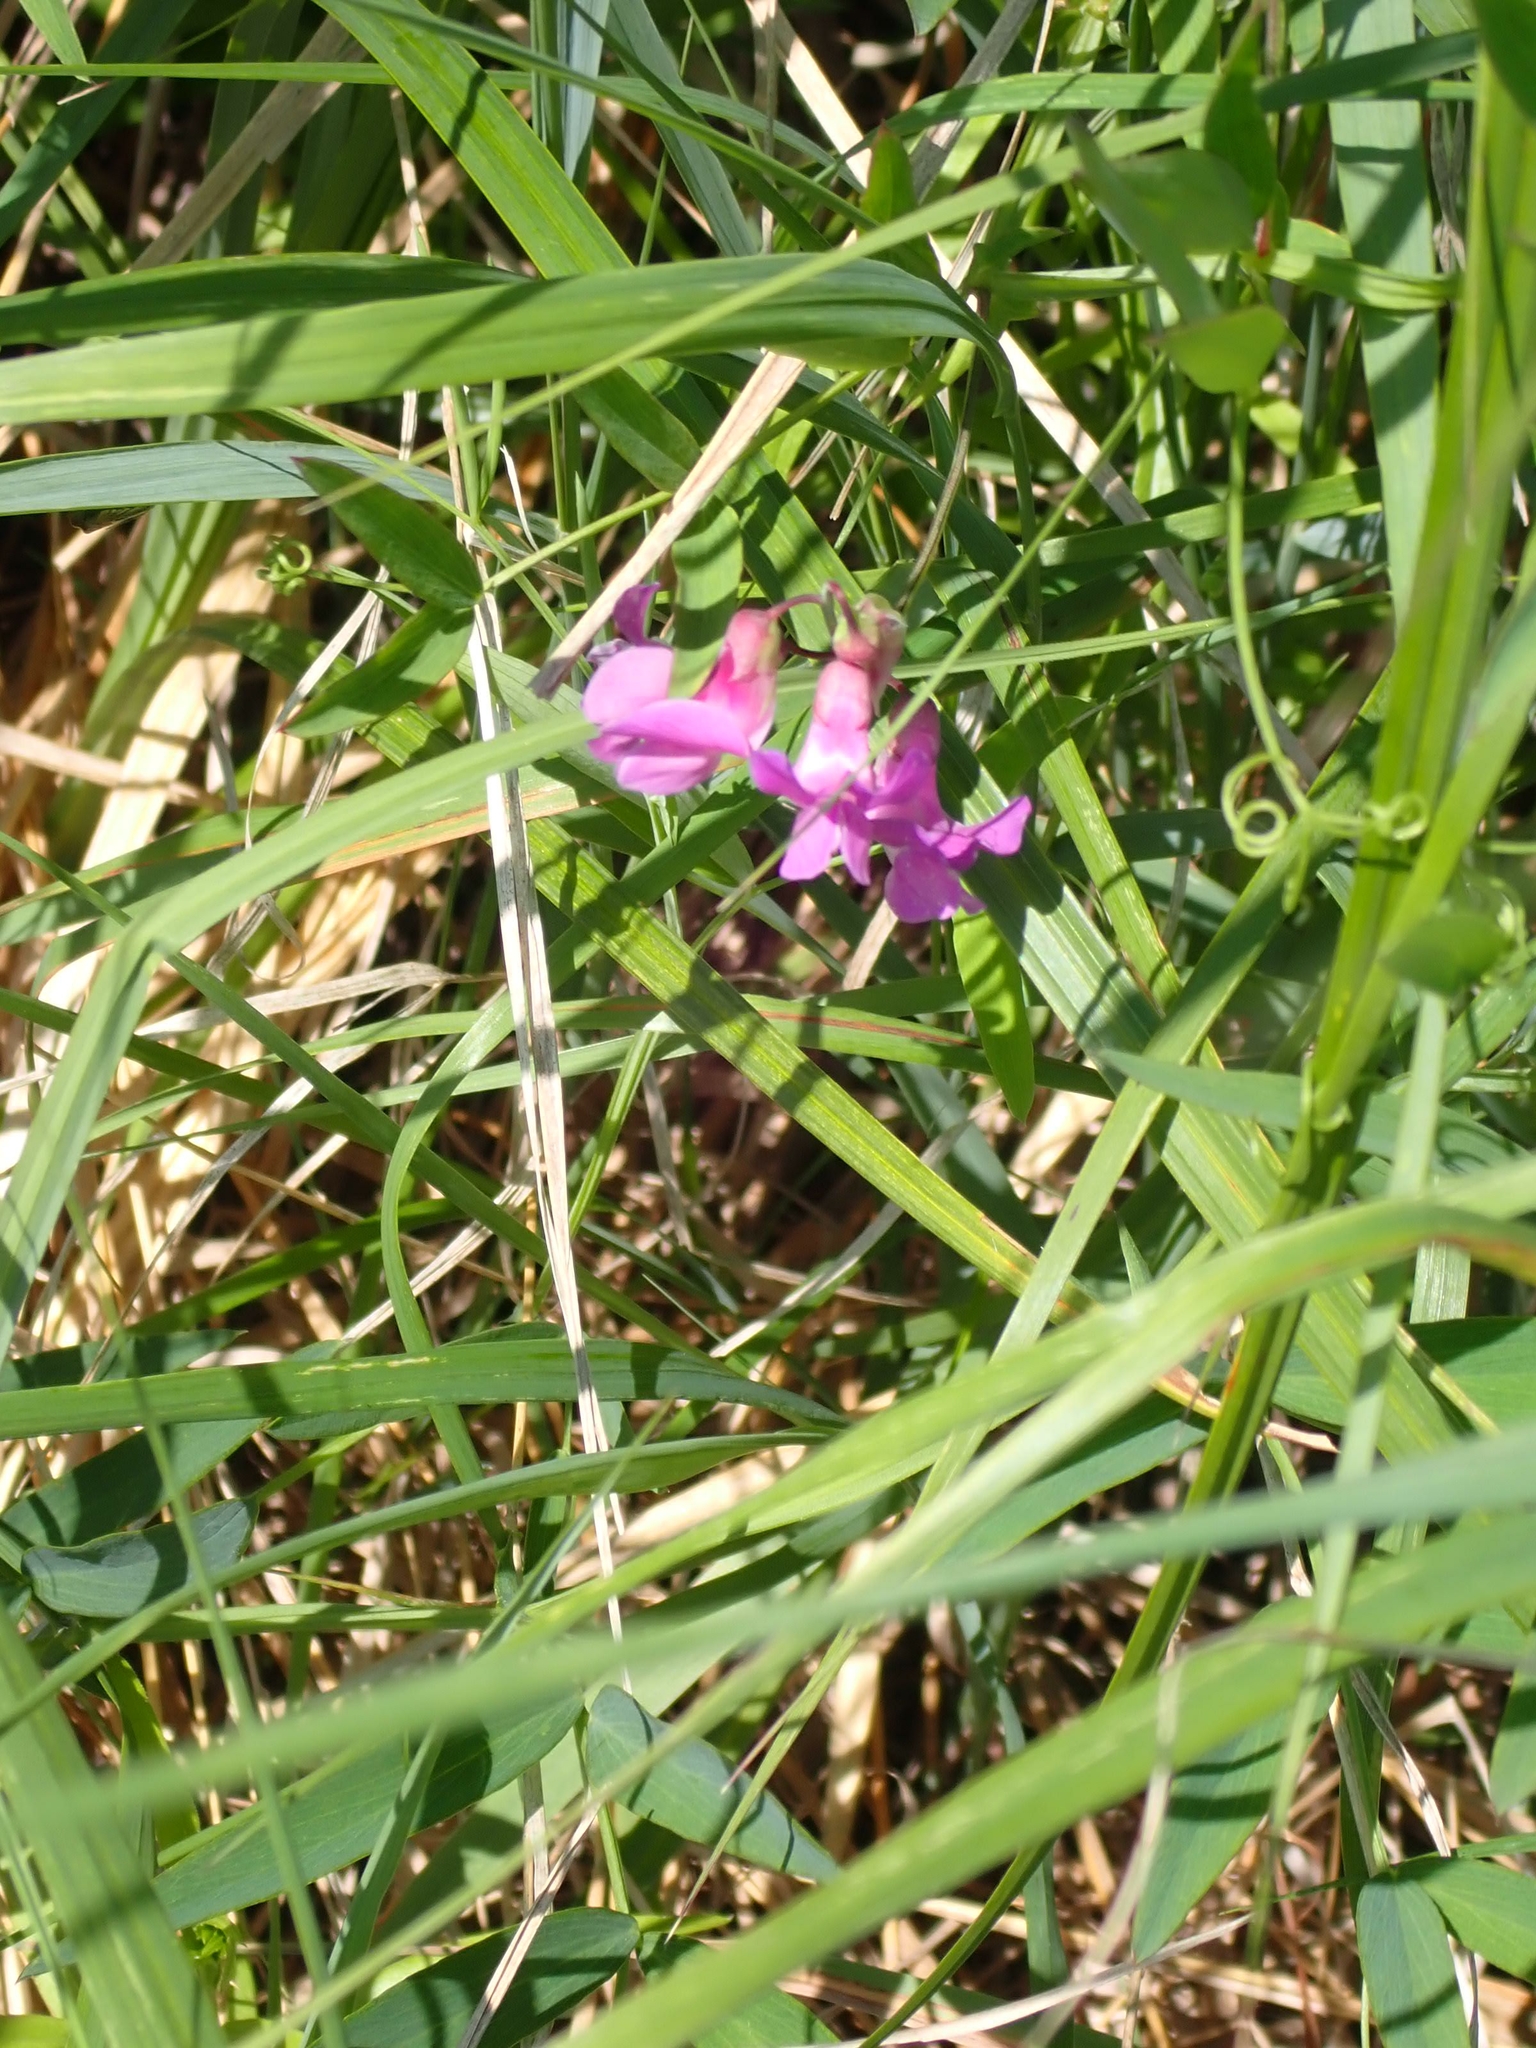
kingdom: Plantae
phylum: Tracheophyta
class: Magnoliopsida
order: Fabales
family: Fabaceae
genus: Lathyrus
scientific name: Lathyrus palustris
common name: Marsh pea
